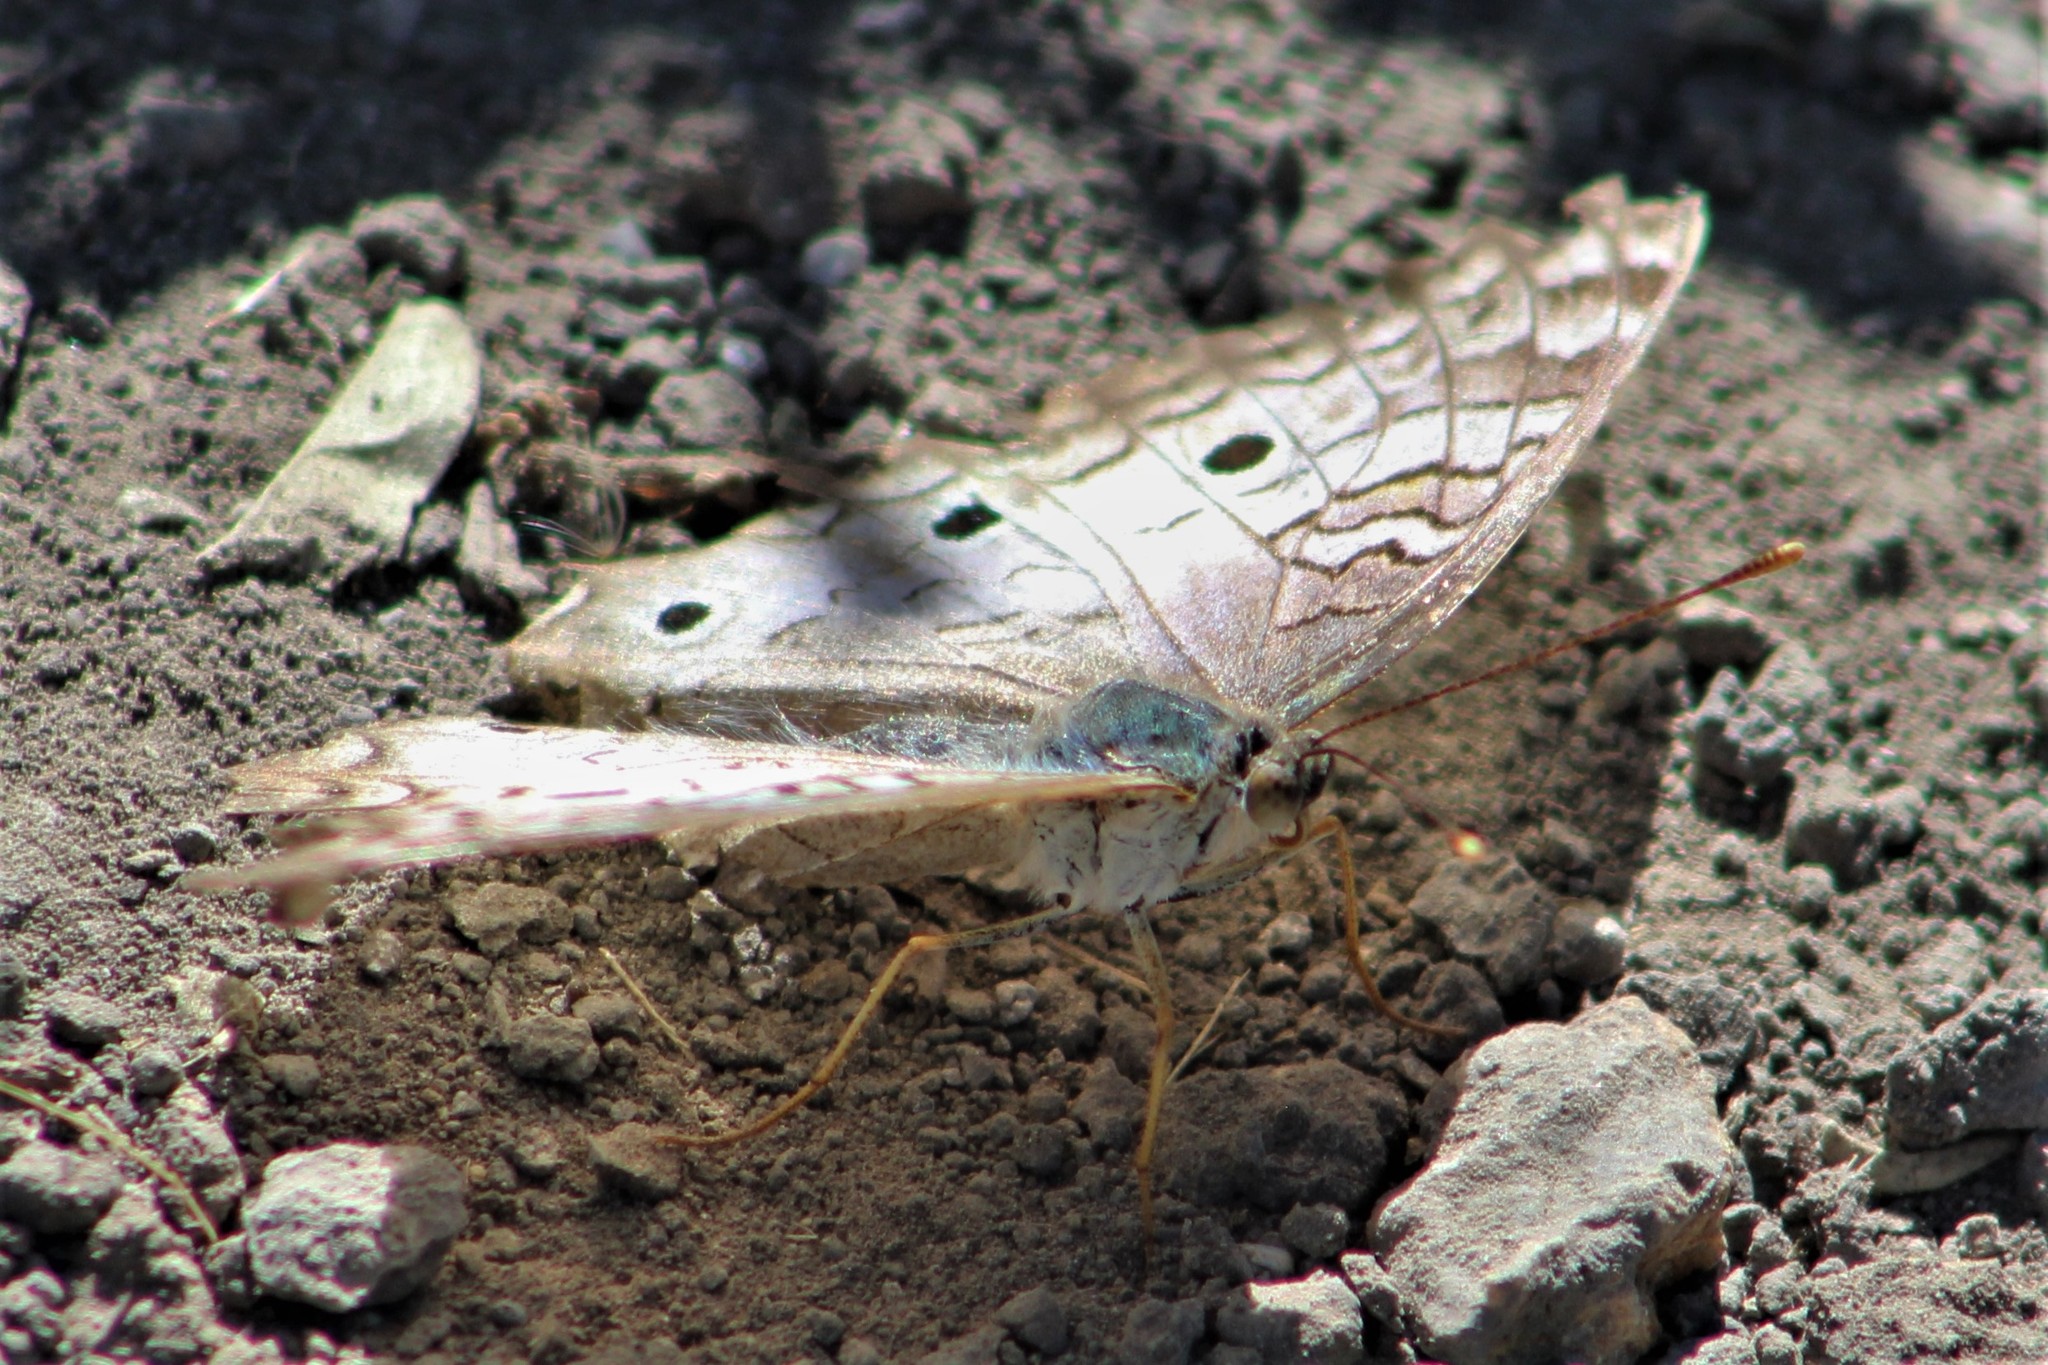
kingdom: Animalia
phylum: Arthropoda
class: Insecta
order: Lepidoptera
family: Nymphalidae
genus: Anartia
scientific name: Anartia jatrophae
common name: White peacock
